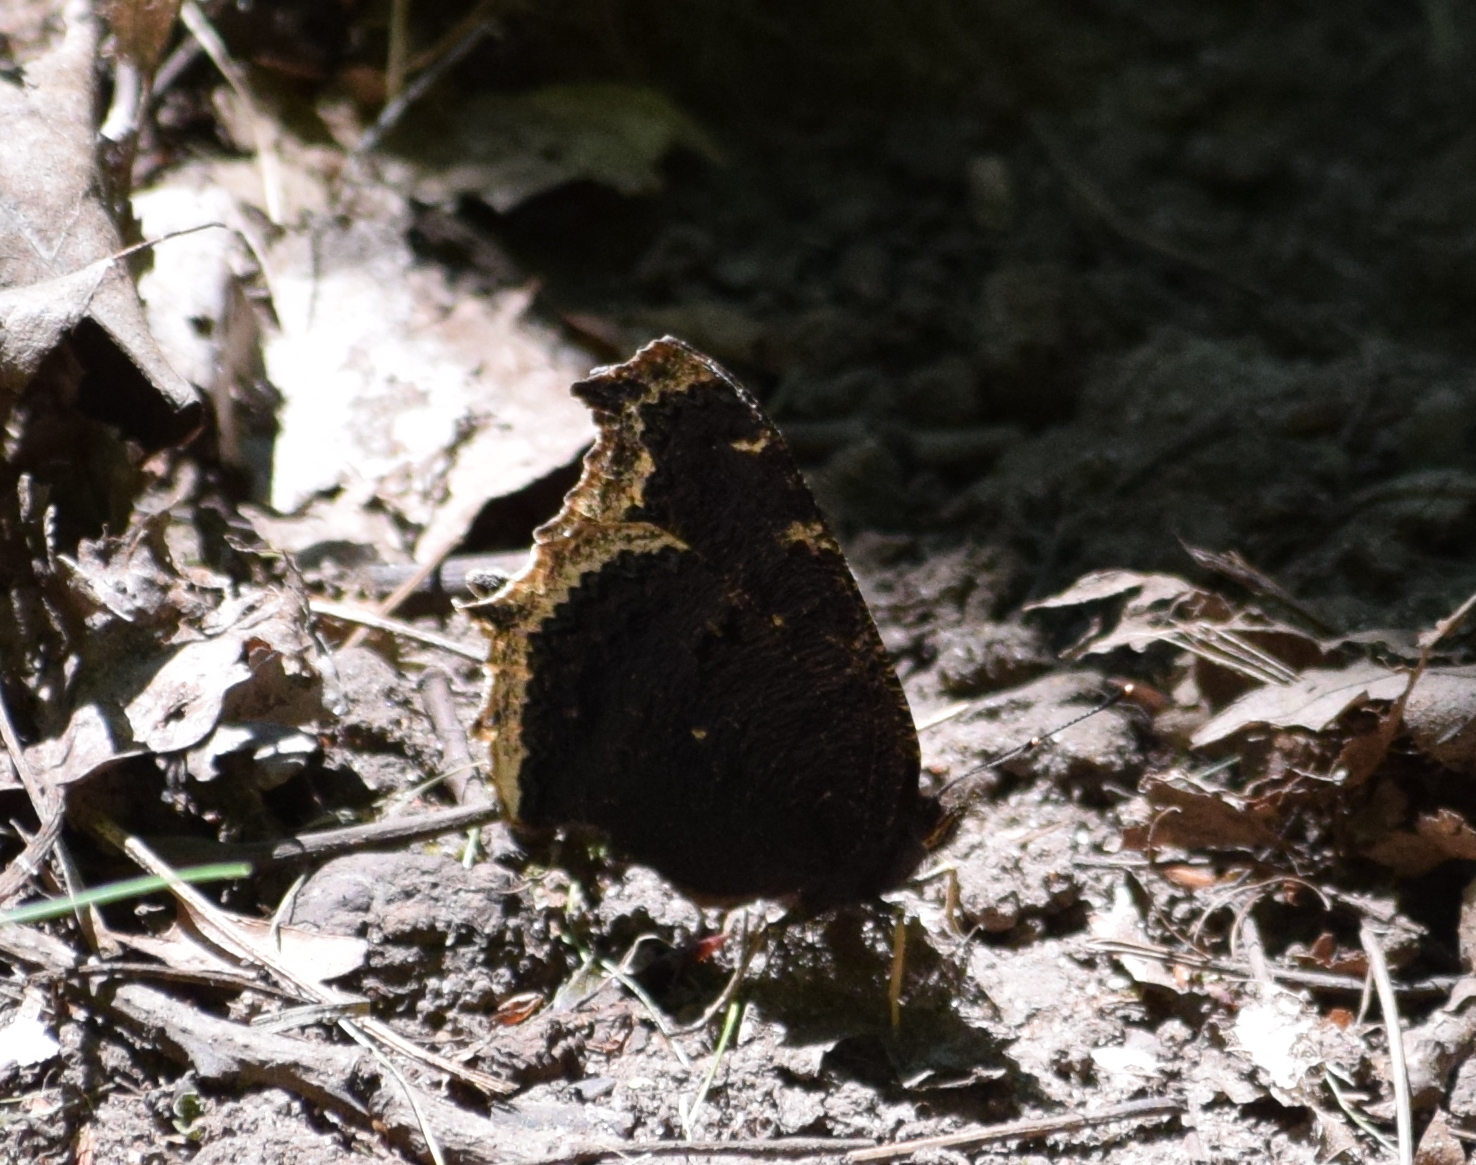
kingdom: Animalia
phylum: Arthropoda
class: Insecta
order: Lepidoptera
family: Nymphalidae
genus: Nymphalis
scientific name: Nymphalis antiopa
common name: Camberwell beauty
